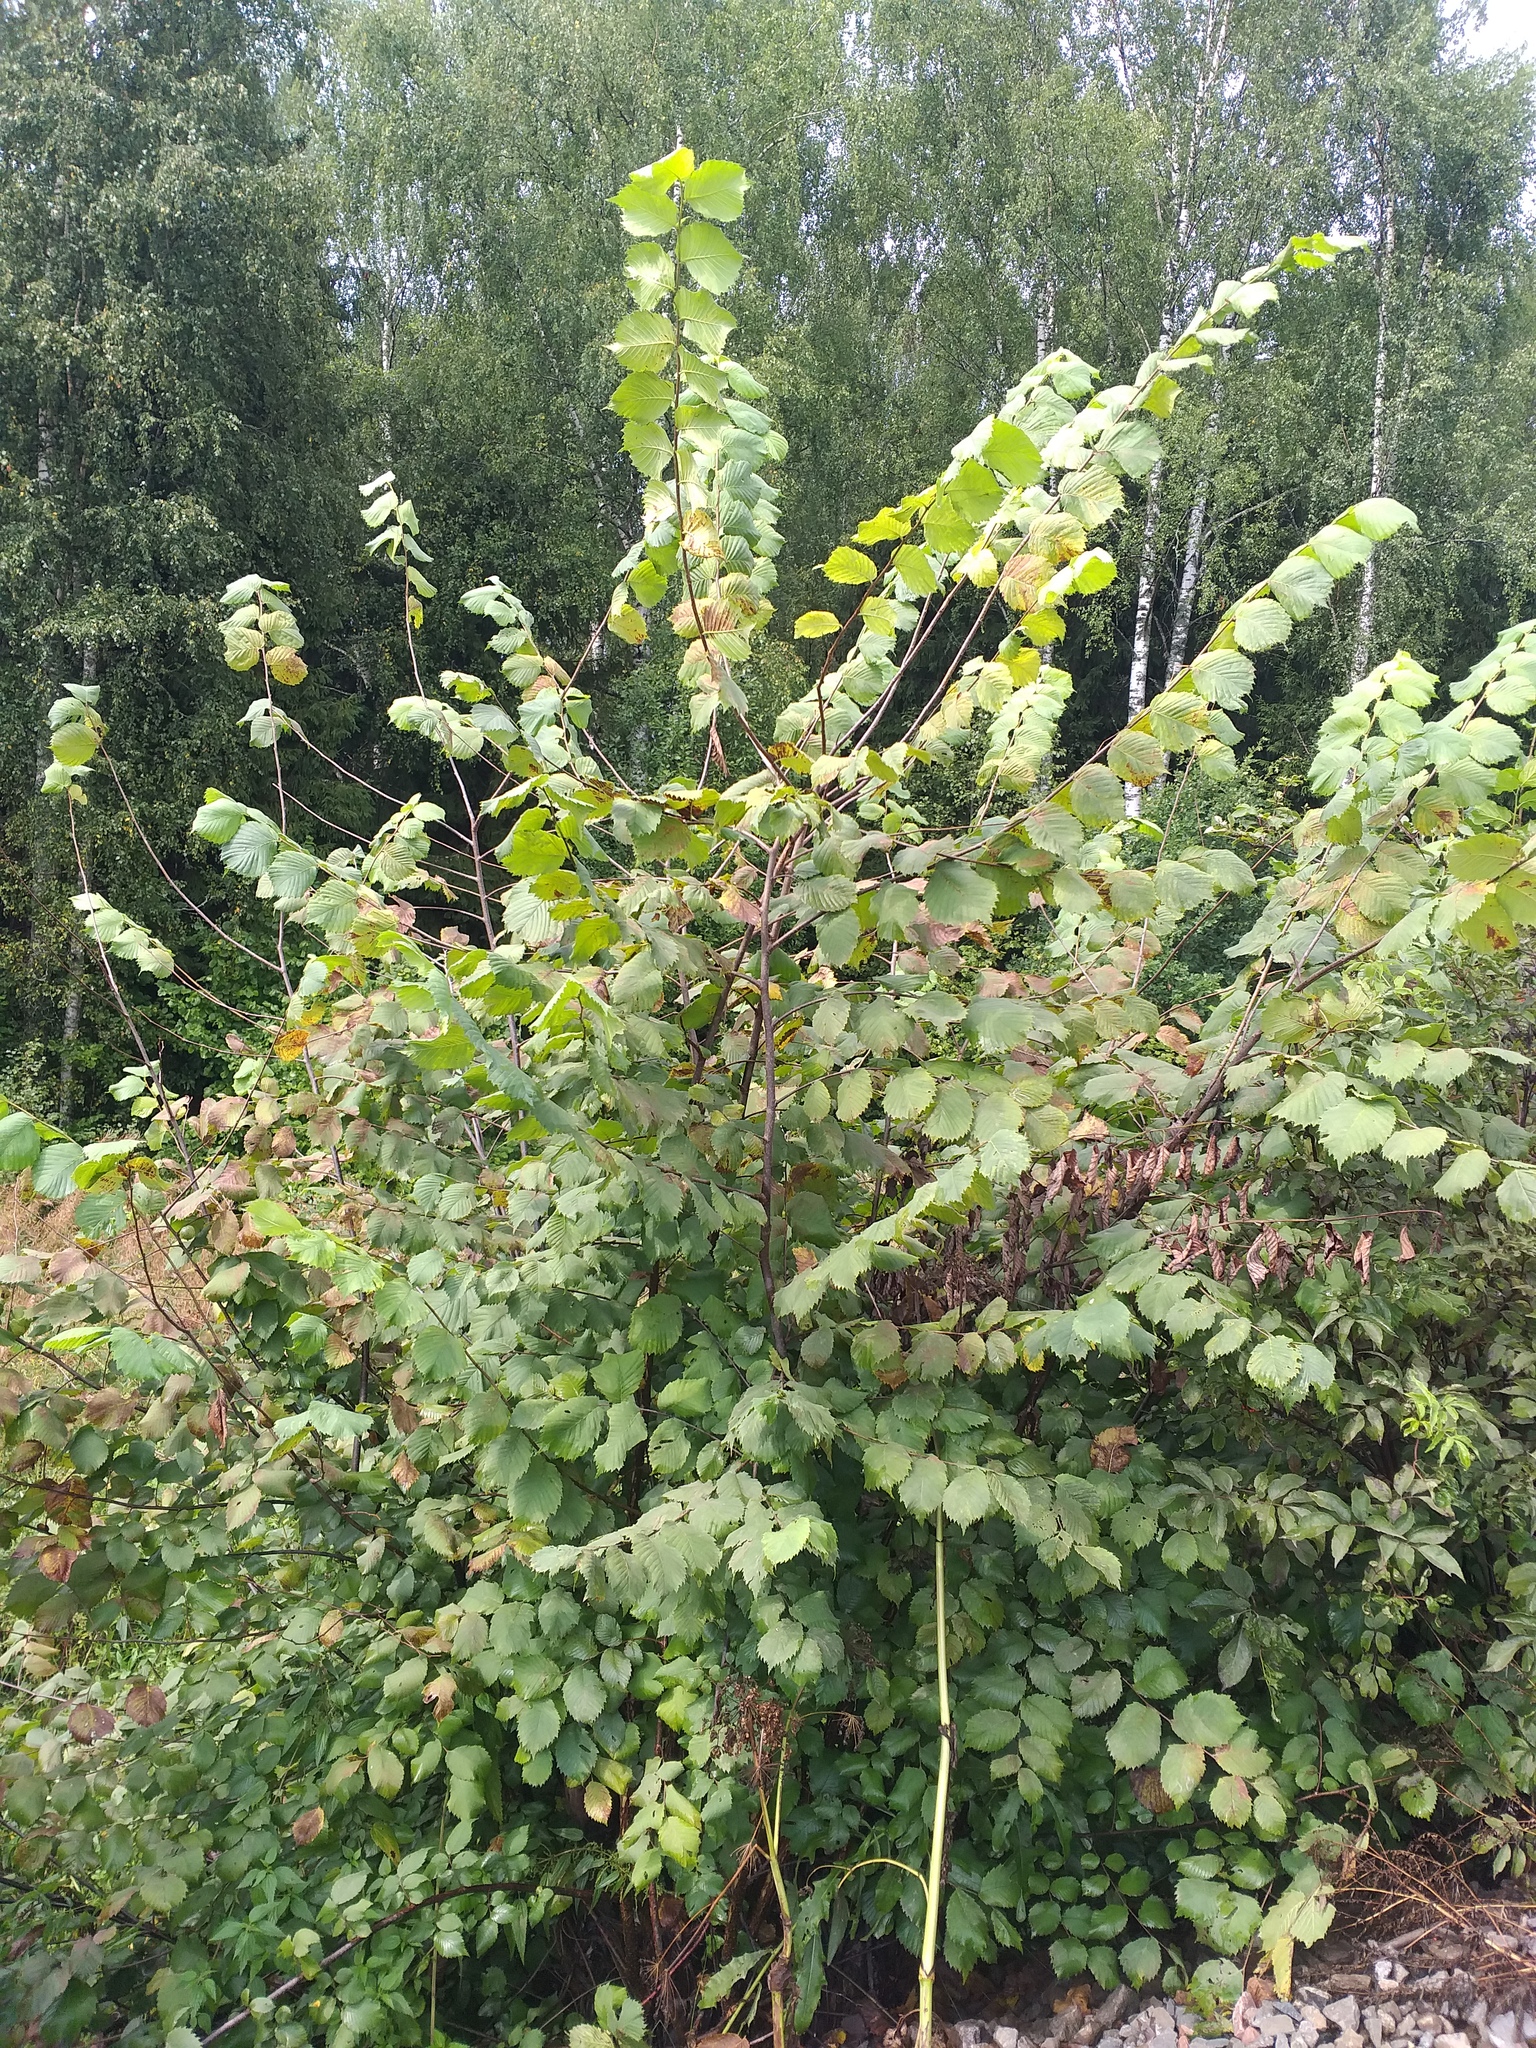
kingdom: Plantae
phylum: Tracheophyta
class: Magnoliopsida
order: Rosales
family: Ulmaceae
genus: Ulmus
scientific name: Ulmus laevis
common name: European white-elm
